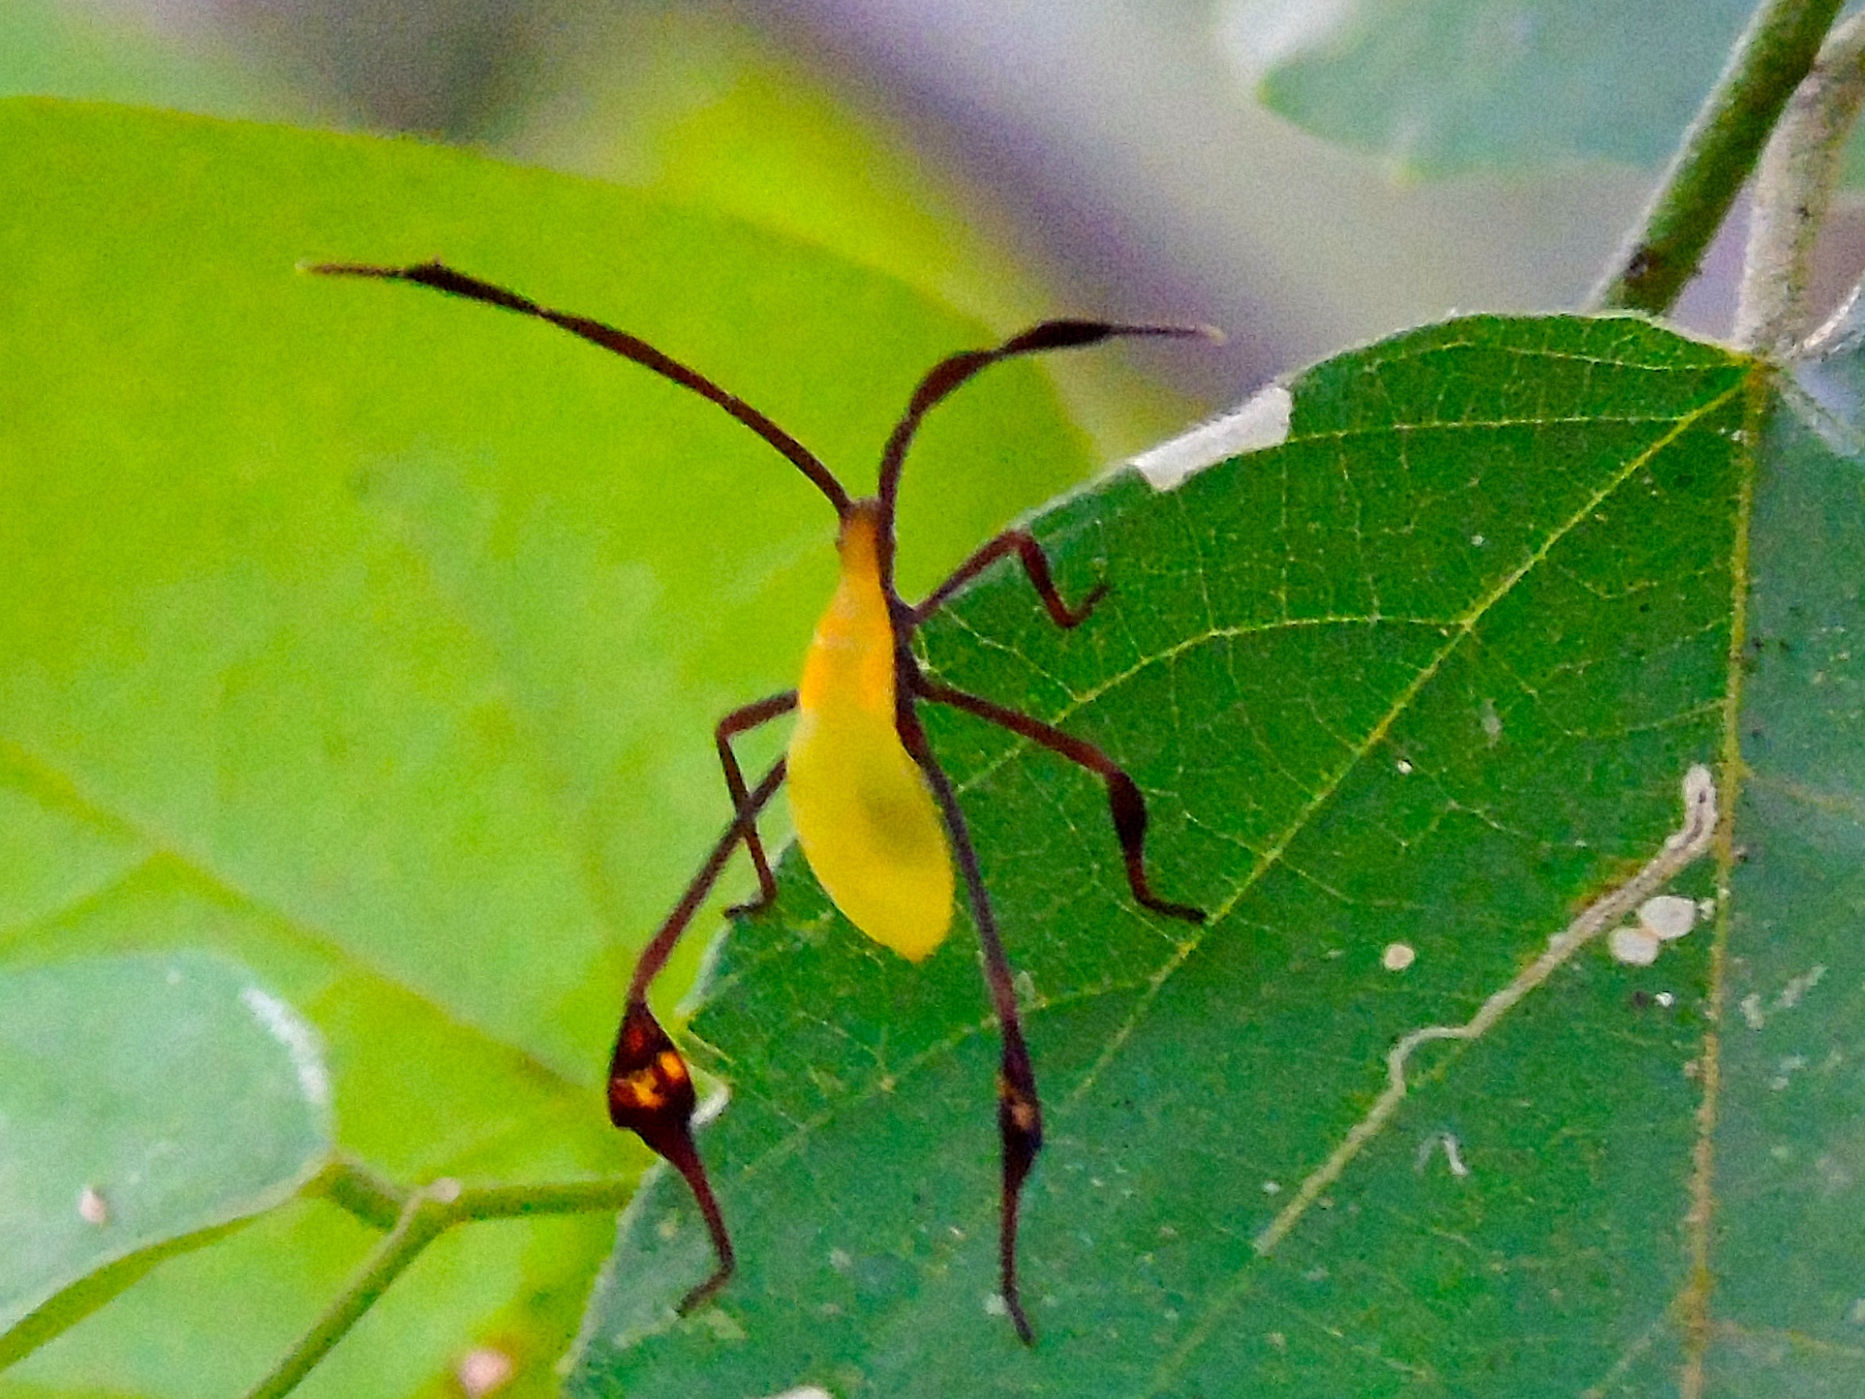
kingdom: Animalia
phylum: Arthropoda
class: Insecta
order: Hemiptera
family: Coreidae
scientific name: Coreidae
